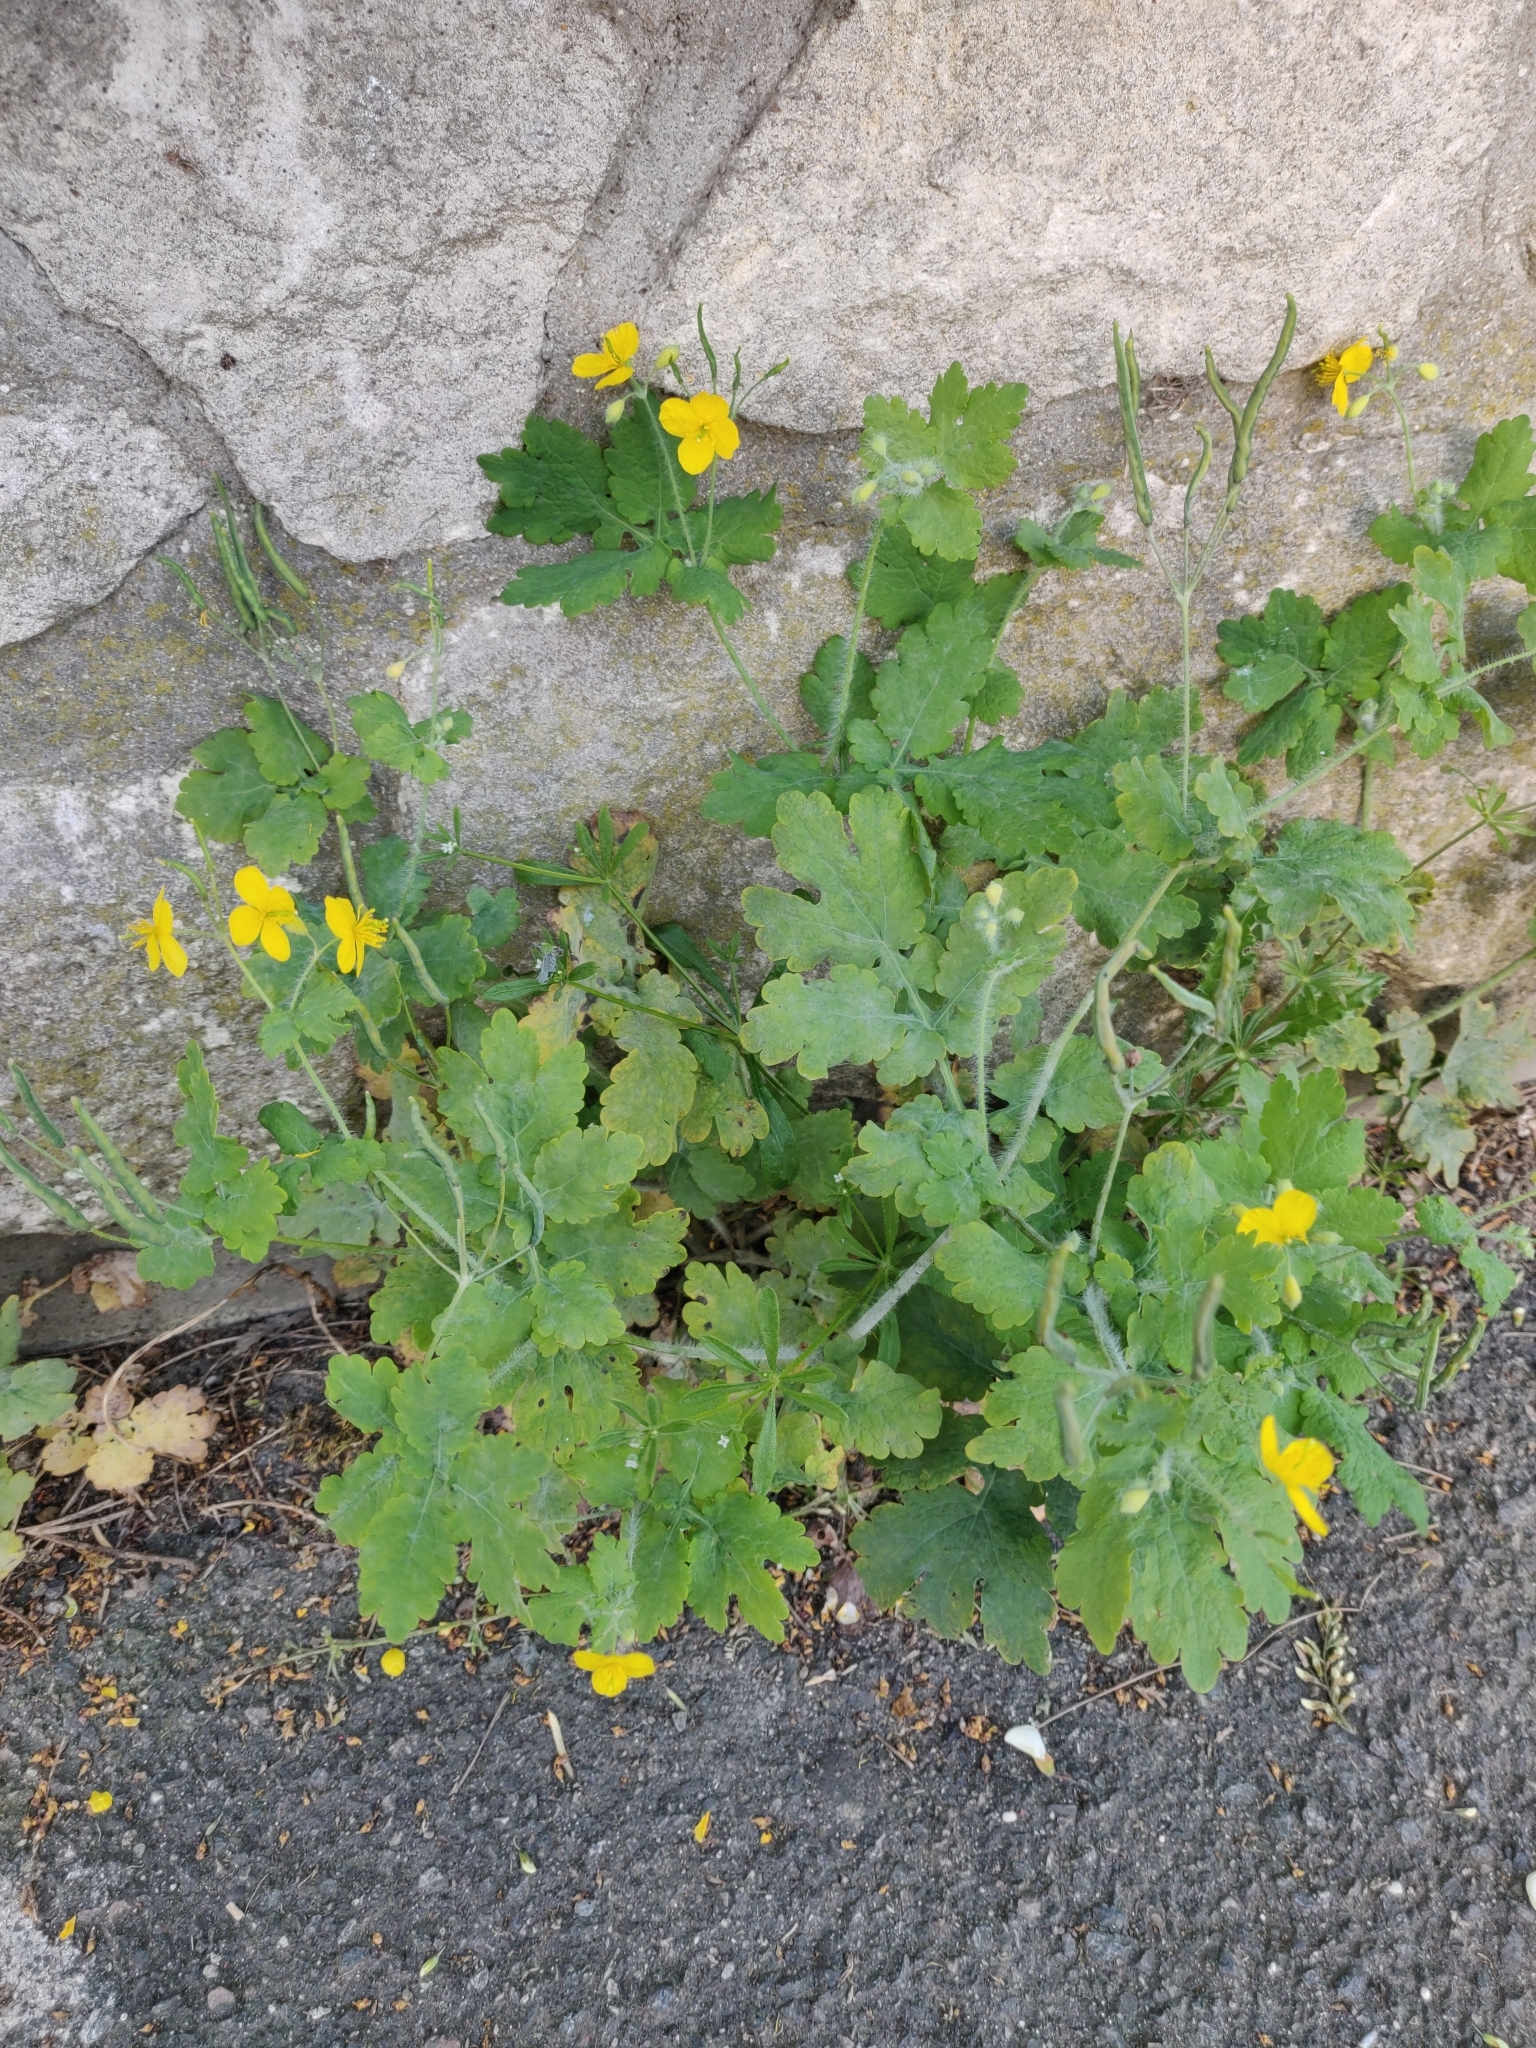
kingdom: Plantae
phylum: Tracheophyta
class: Magnoliopsida
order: Ranunculales
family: Papaveraceae
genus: Chelidonium
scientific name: Chelidonium majus
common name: Greater celandine
